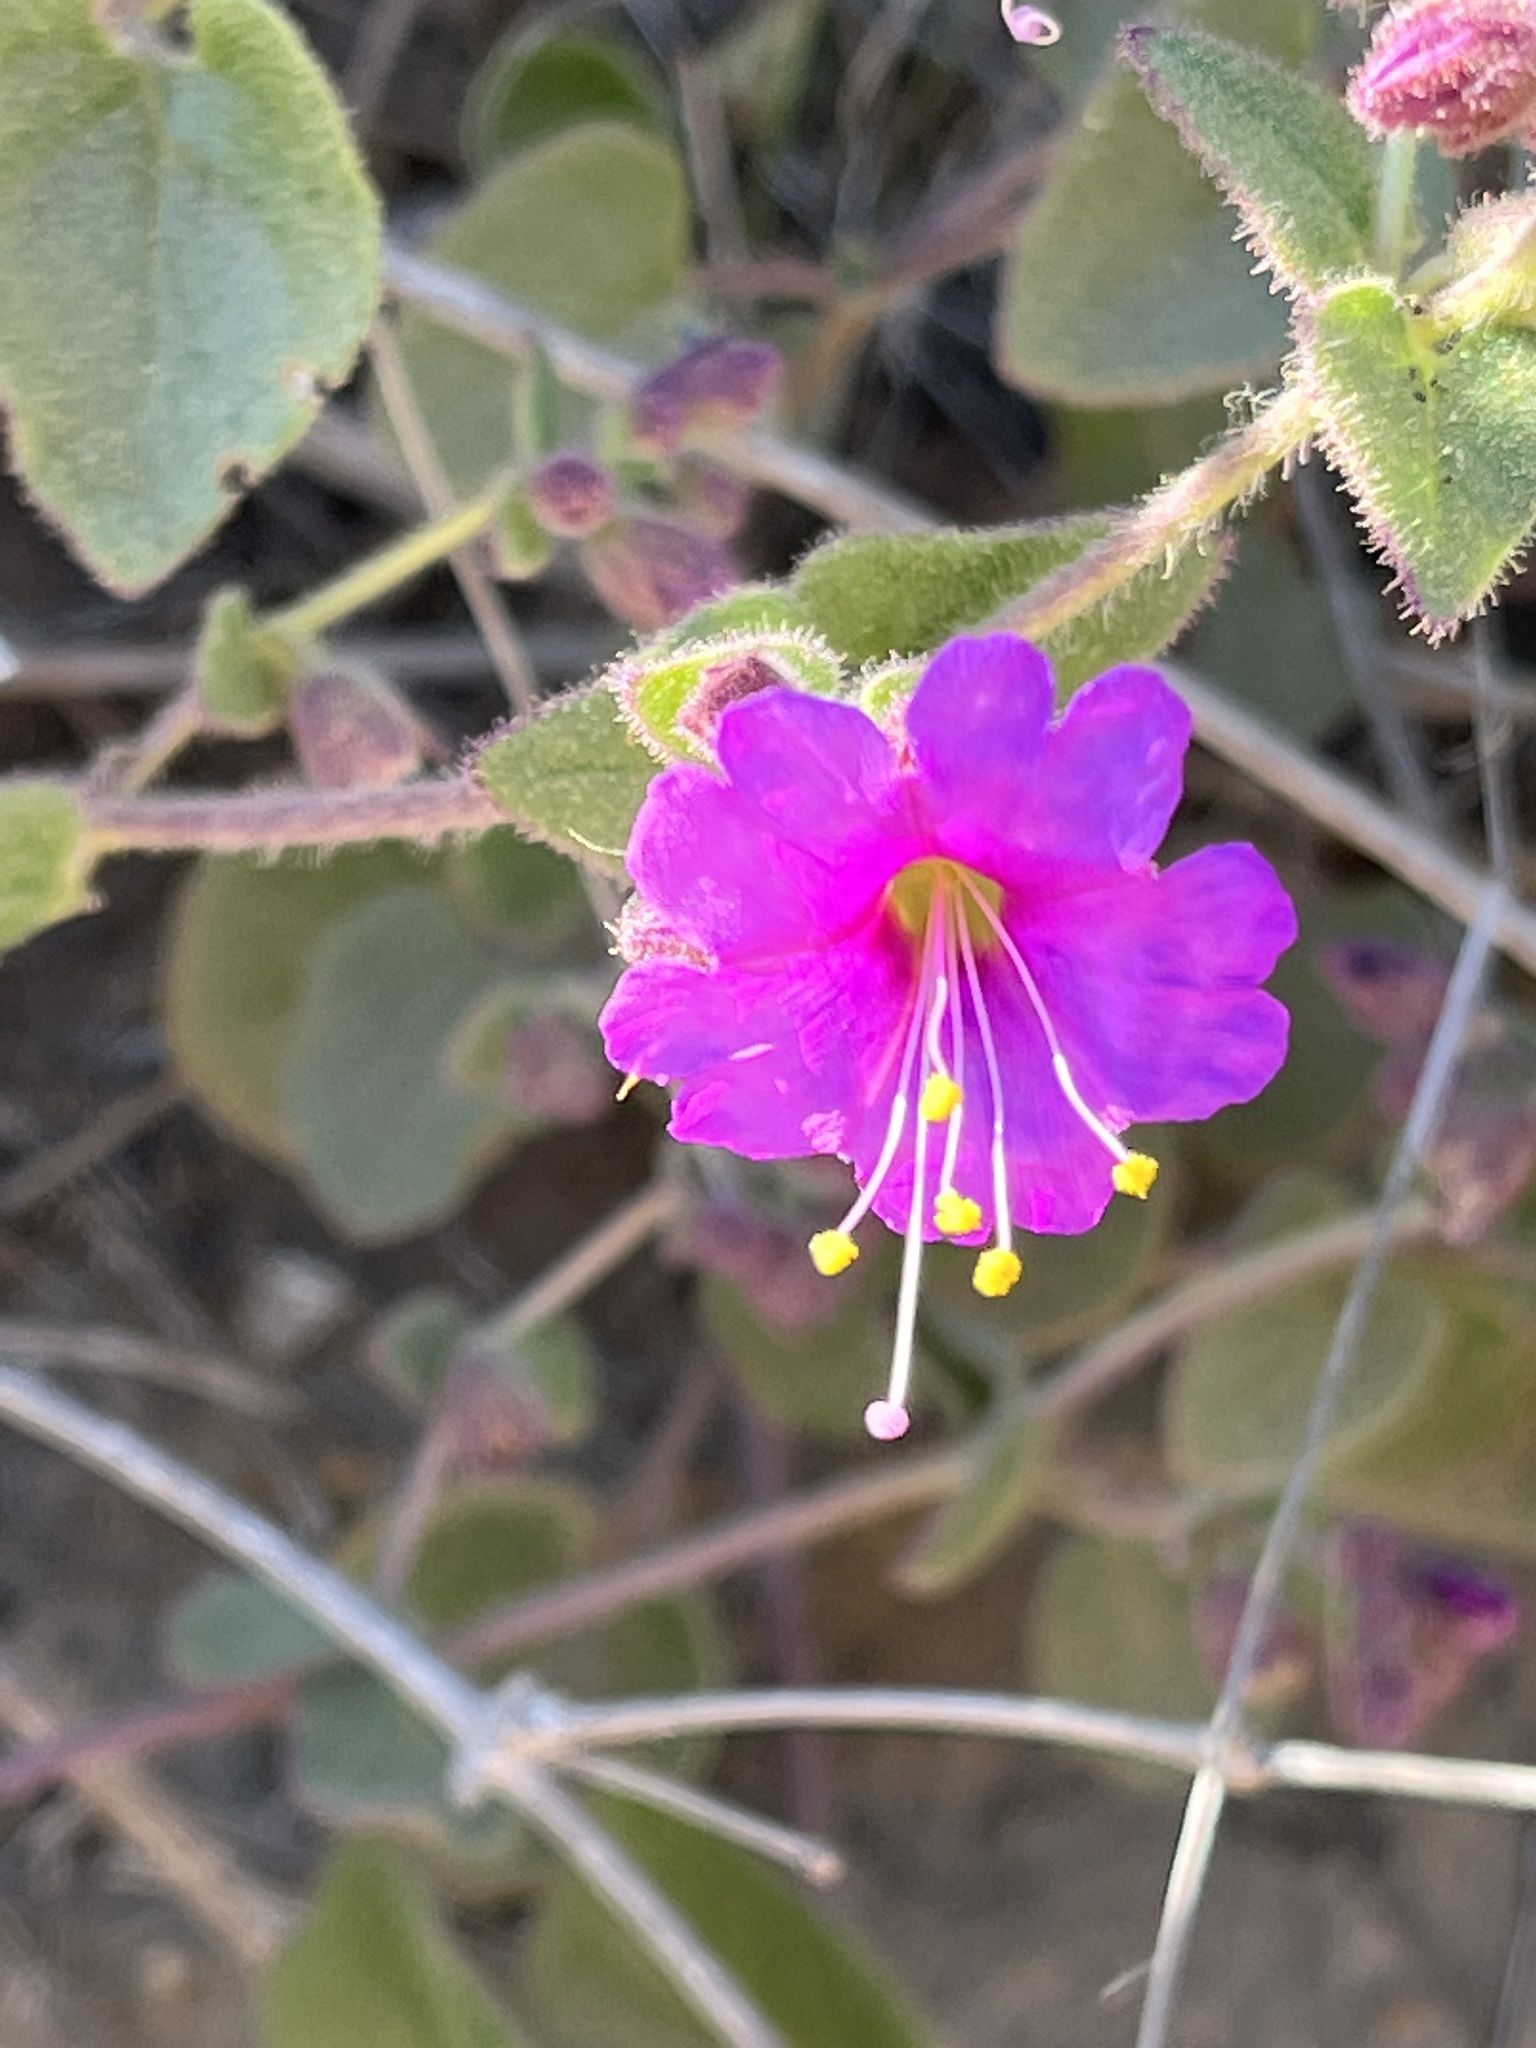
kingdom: Plantae
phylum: Tracheophyta
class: Magnoliopsida
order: Caryophyllales
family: Nyctaginaceae
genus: Mirabilis
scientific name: Mirabilis laevis
